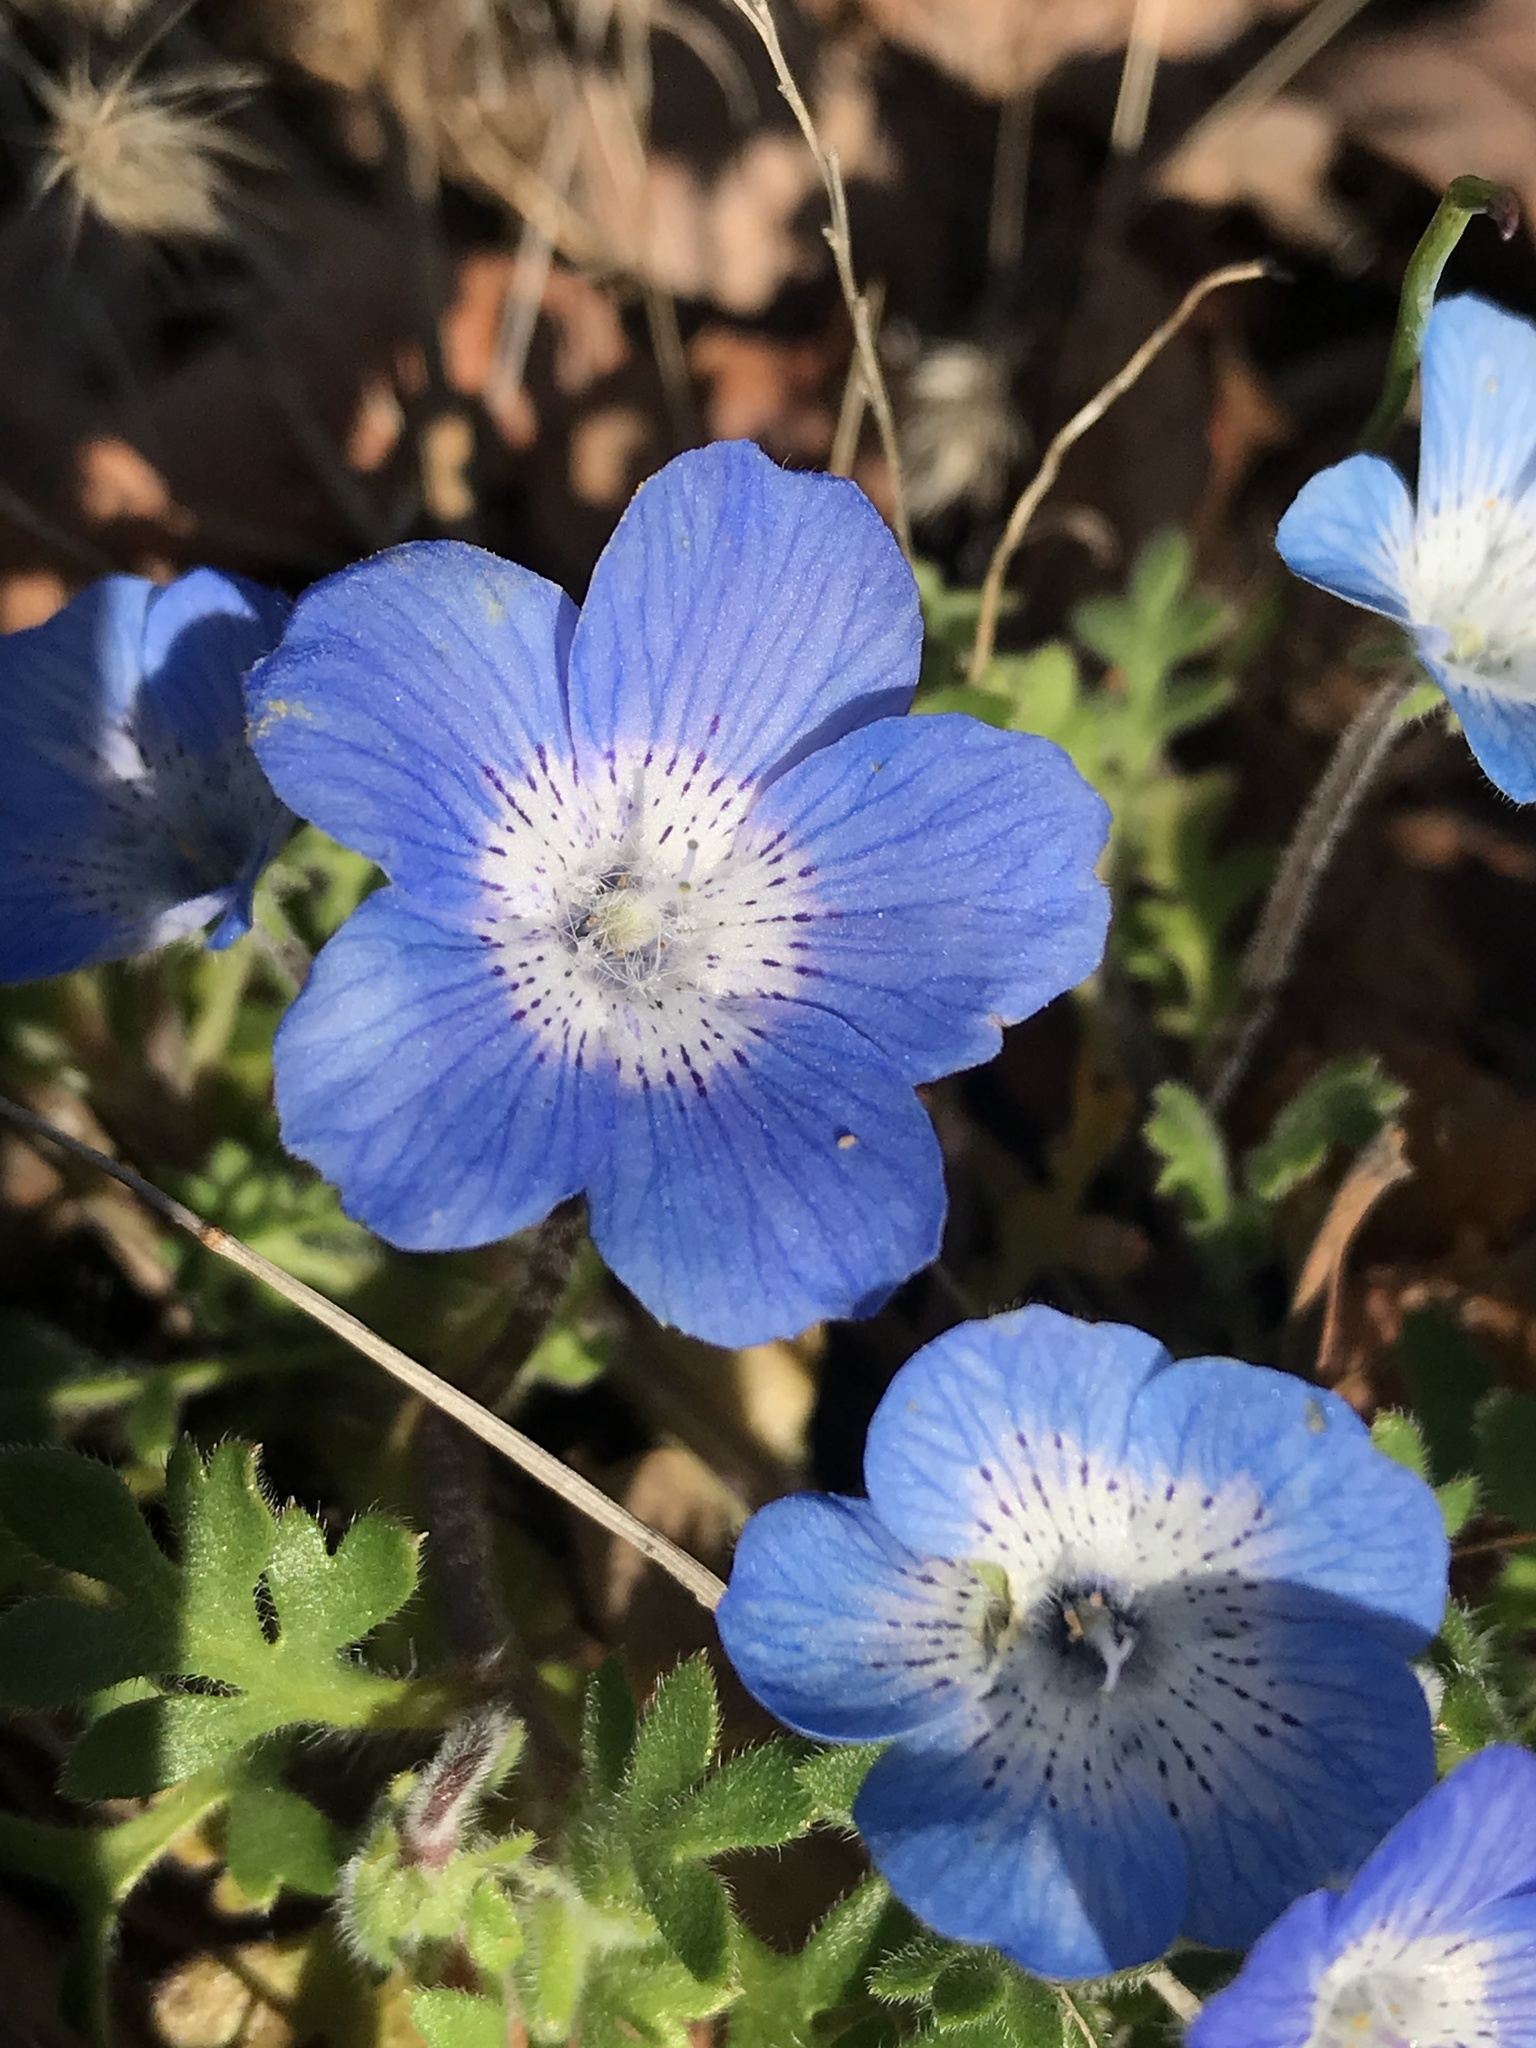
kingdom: Plantae
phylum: Tracheophyta
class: Magnoliopsida
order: Boraginales
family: Hydrophyllaceae
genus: Nemophila
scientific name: Nemophila menziesii
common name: Baby's-blue-eyes
